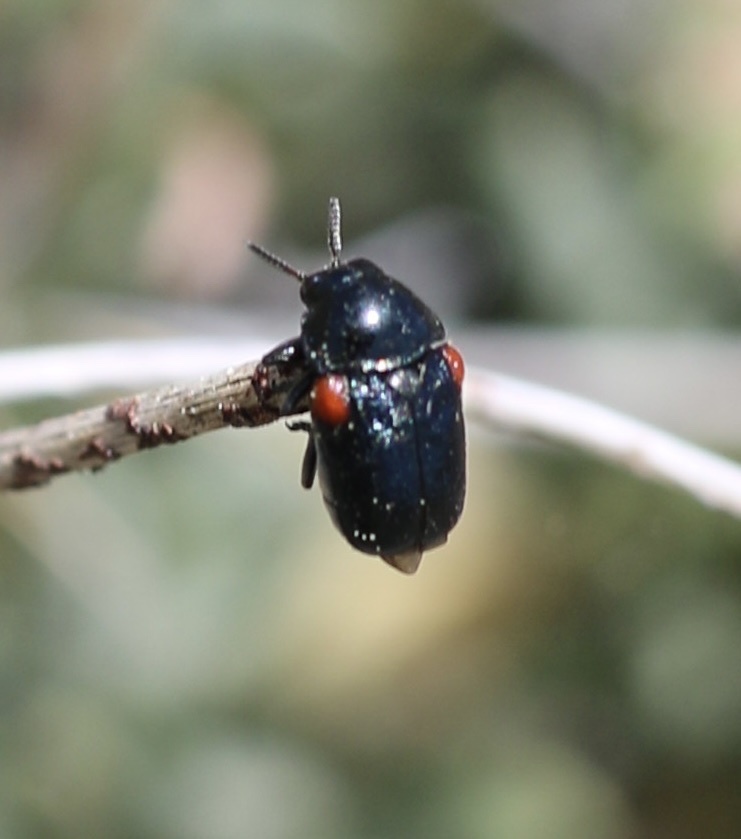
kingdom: Animalia
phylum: Arthropoda
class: Insecta
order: Coleoptera
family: Chrysomelidae
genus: Saxinis
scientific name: Saxinis saucia
